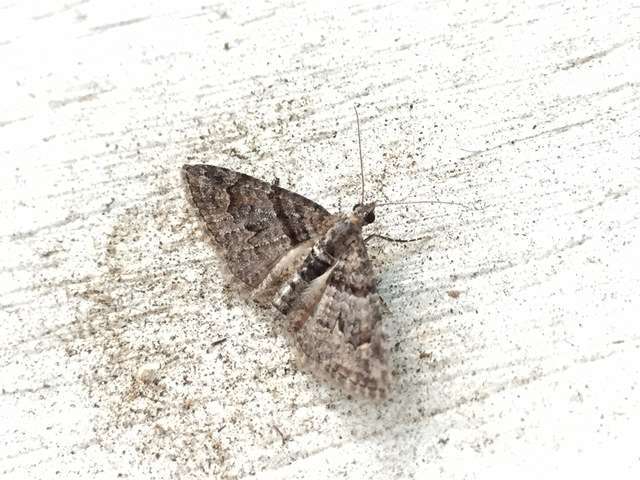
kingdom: Animalia
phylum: Arthropoda
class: Insecta
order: Lepidoptera
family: Geometridae
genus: Phrissogonus
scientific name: Phrissogonus laticostata
